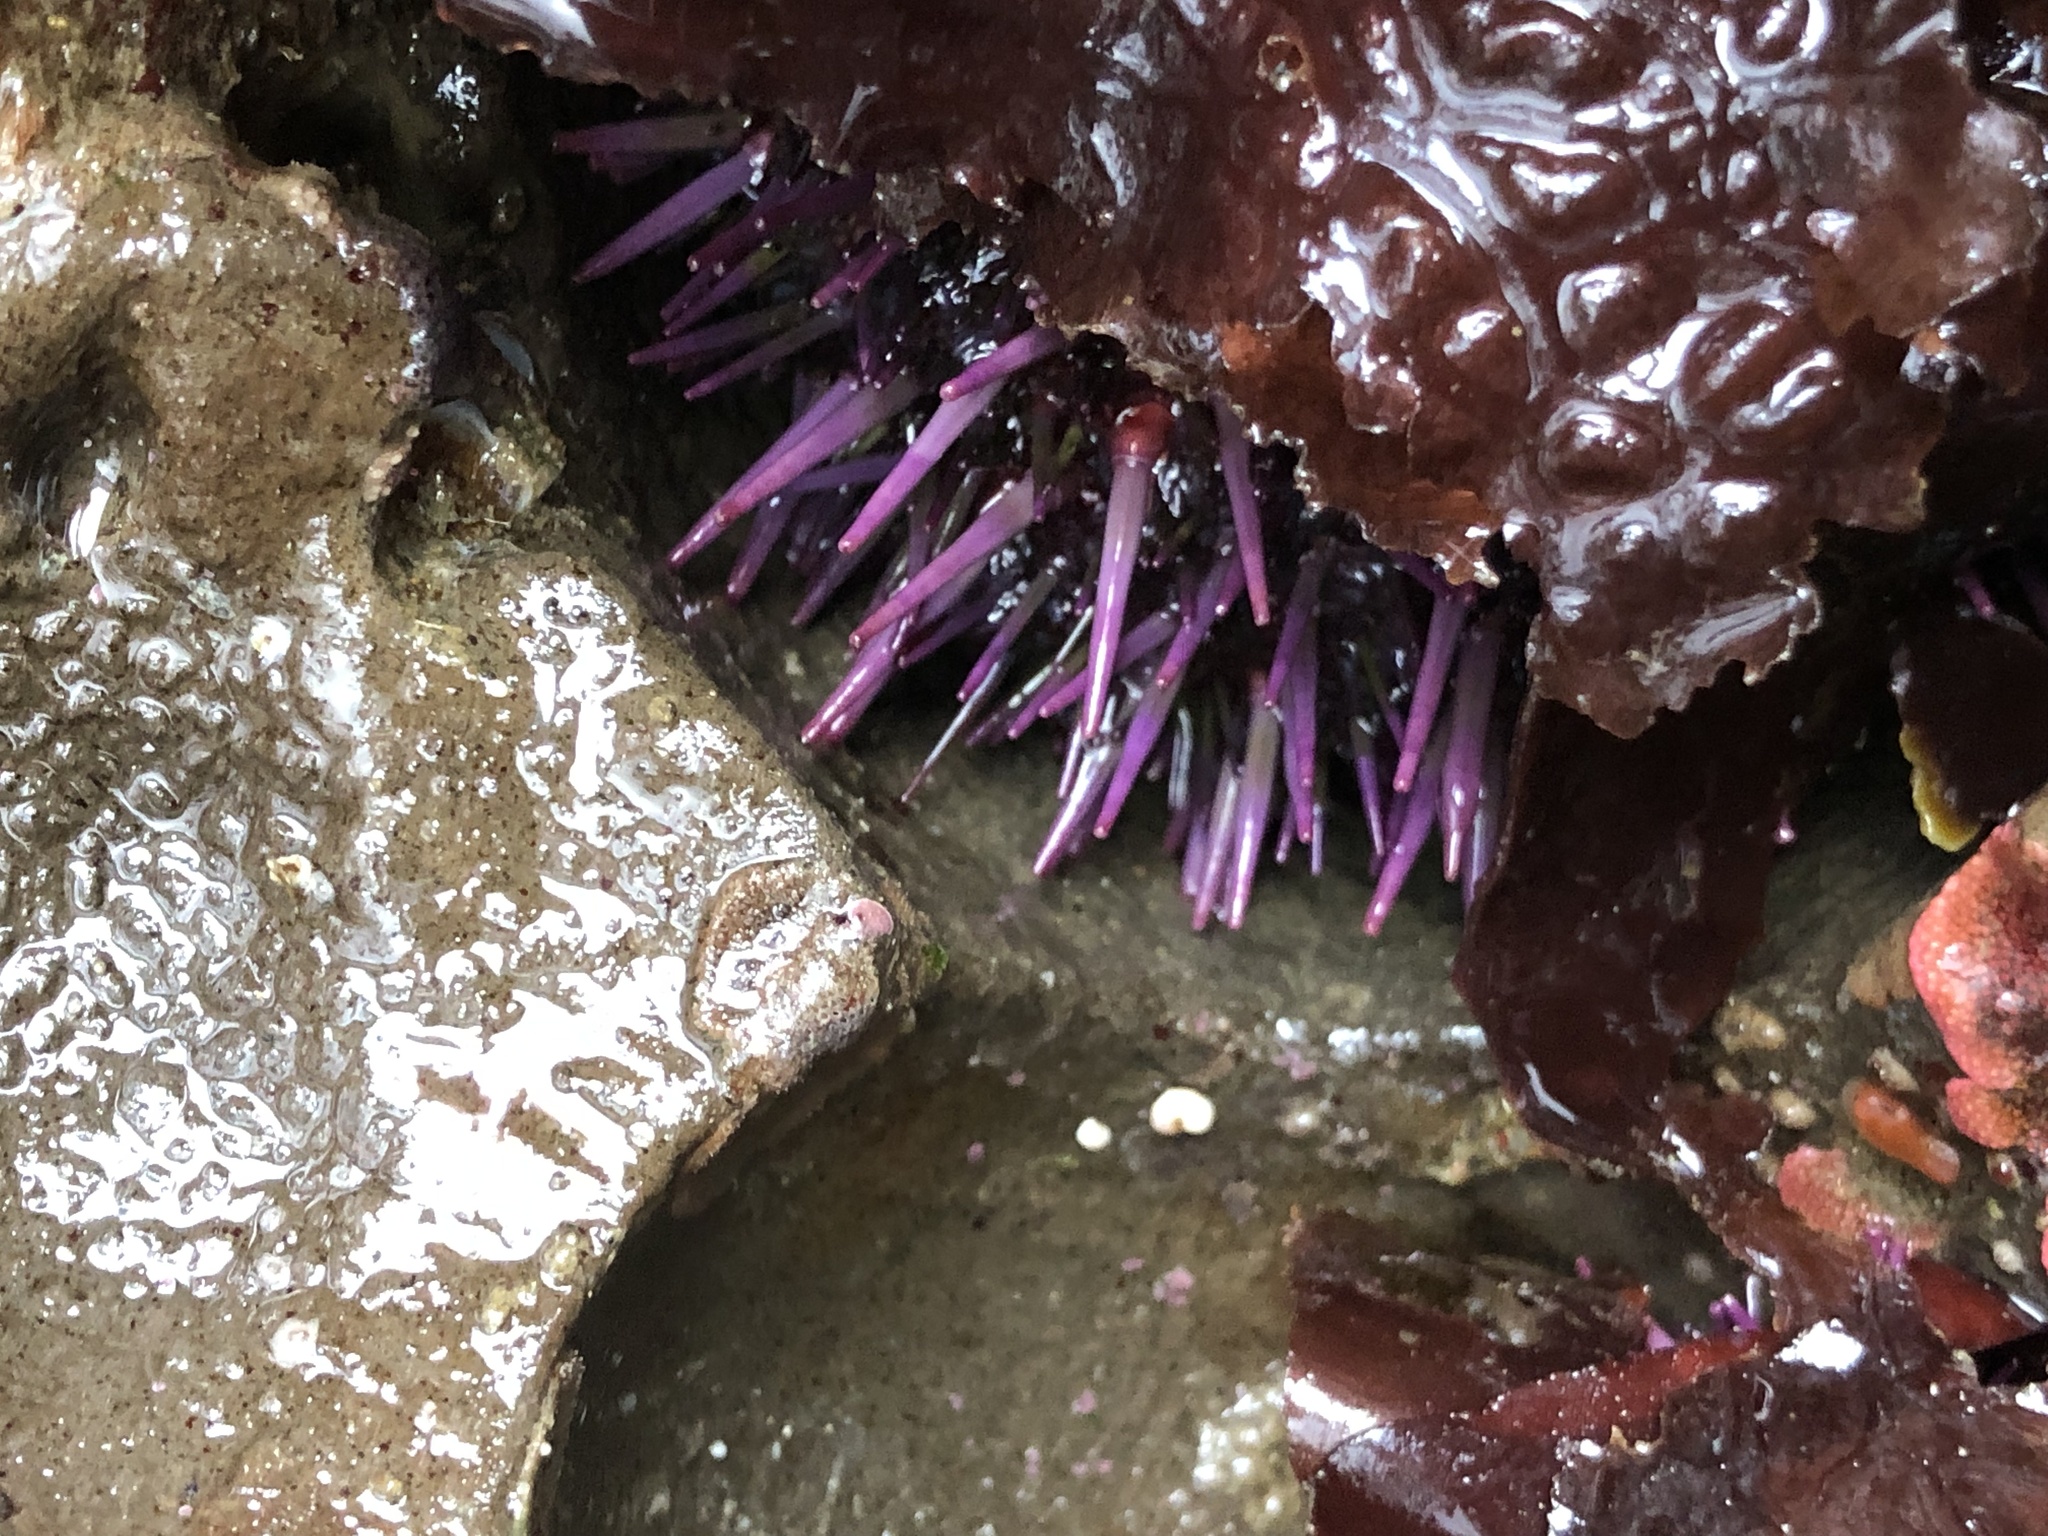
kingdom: Animalia
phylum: Echinodermata
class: Echinoidea
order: Camarodonta
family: Strongylocentrotidae
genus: Strongylocentrotus
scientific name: Strongylocentrotus purpuratus
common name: Purple sea urchin
